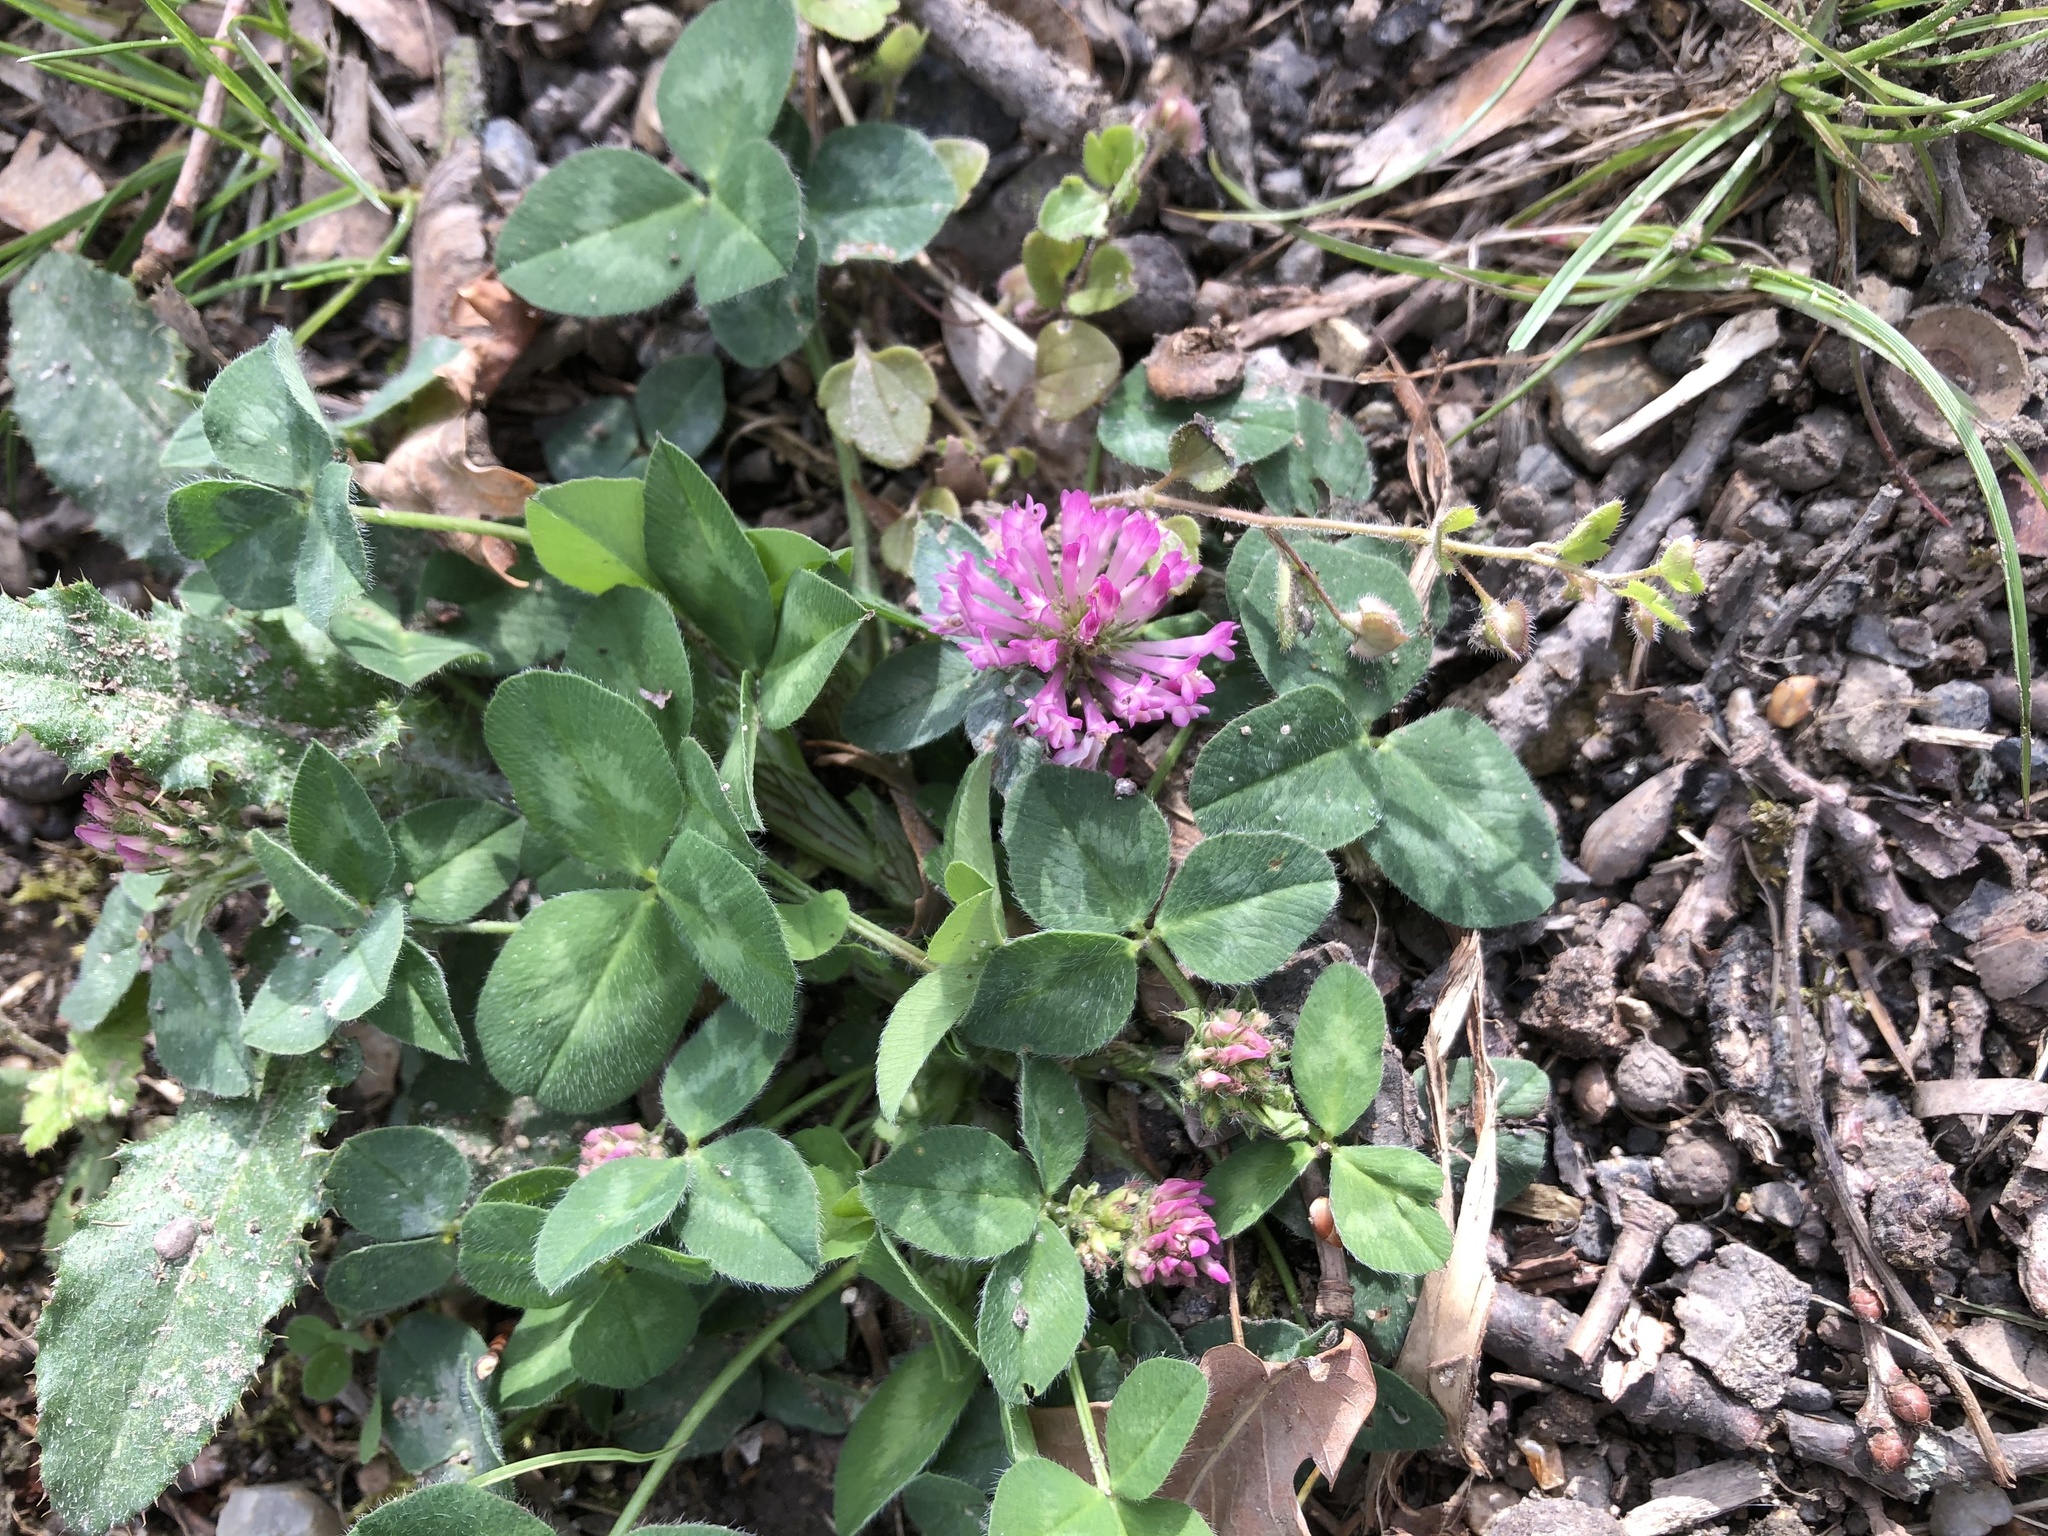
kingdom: Plantae
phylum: Tracheophyta
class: Magnoliopsida
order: Fabales
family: Fabaceae
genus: Trifolium
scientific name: Trifolium pratense
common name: Red clover
